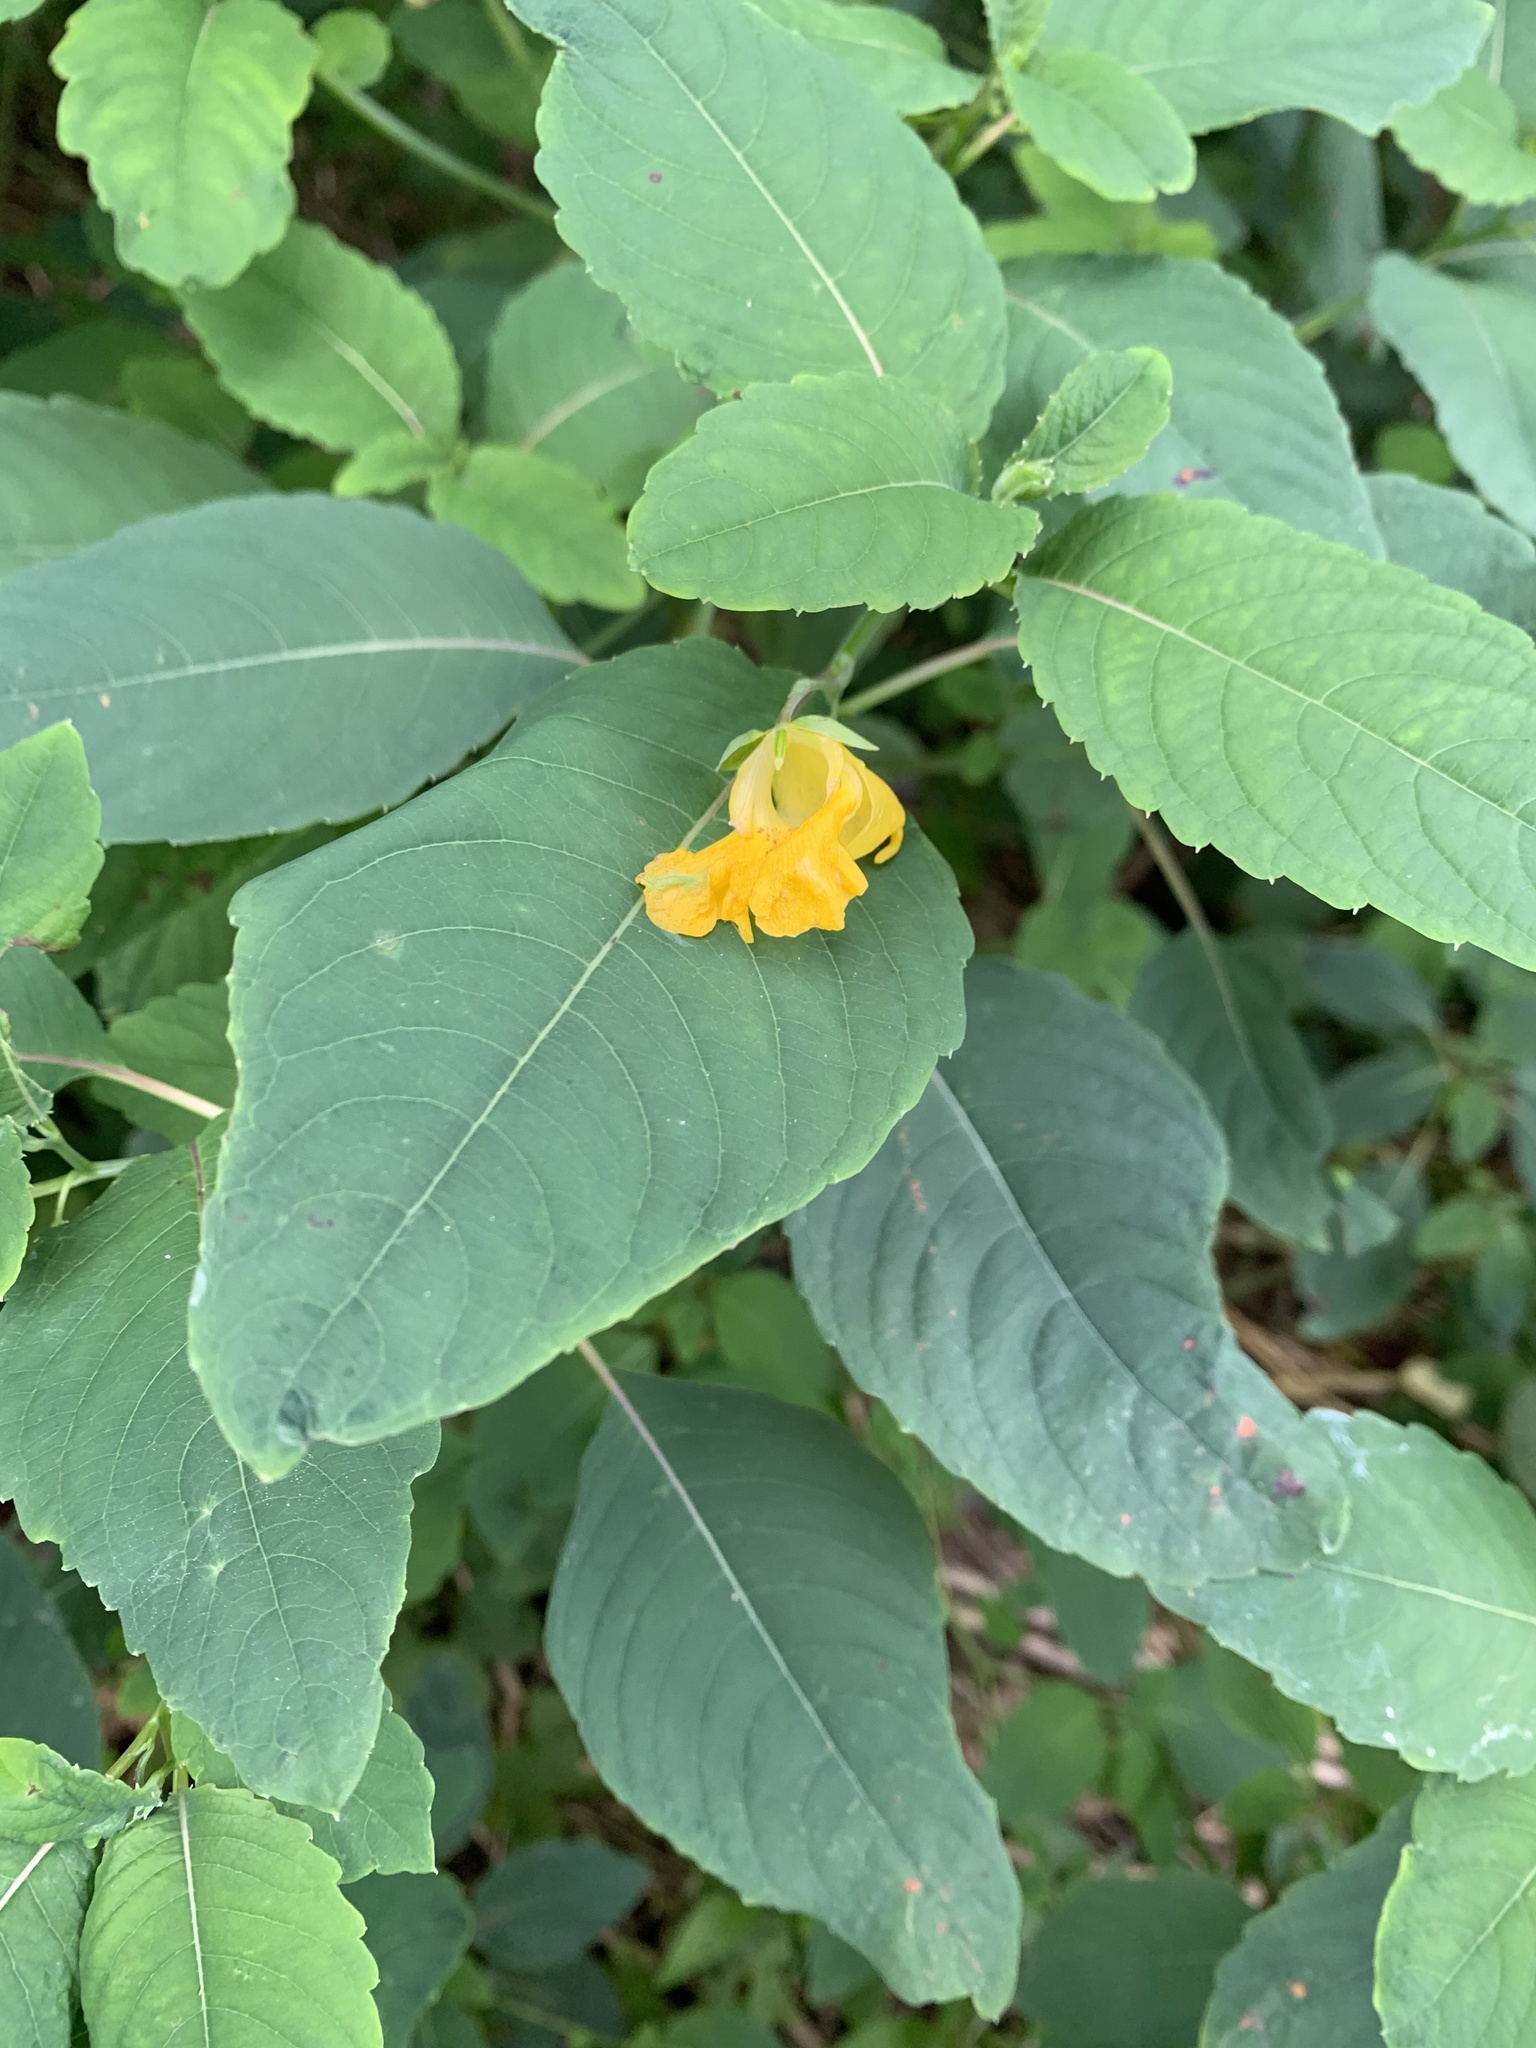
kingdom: Plantae
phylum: Tracheophyta
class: Magnoliopsida
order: Ericales
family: Balsaminaceae
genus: Impatiens
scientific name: Impatiens pallida
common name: Pale snapweed
